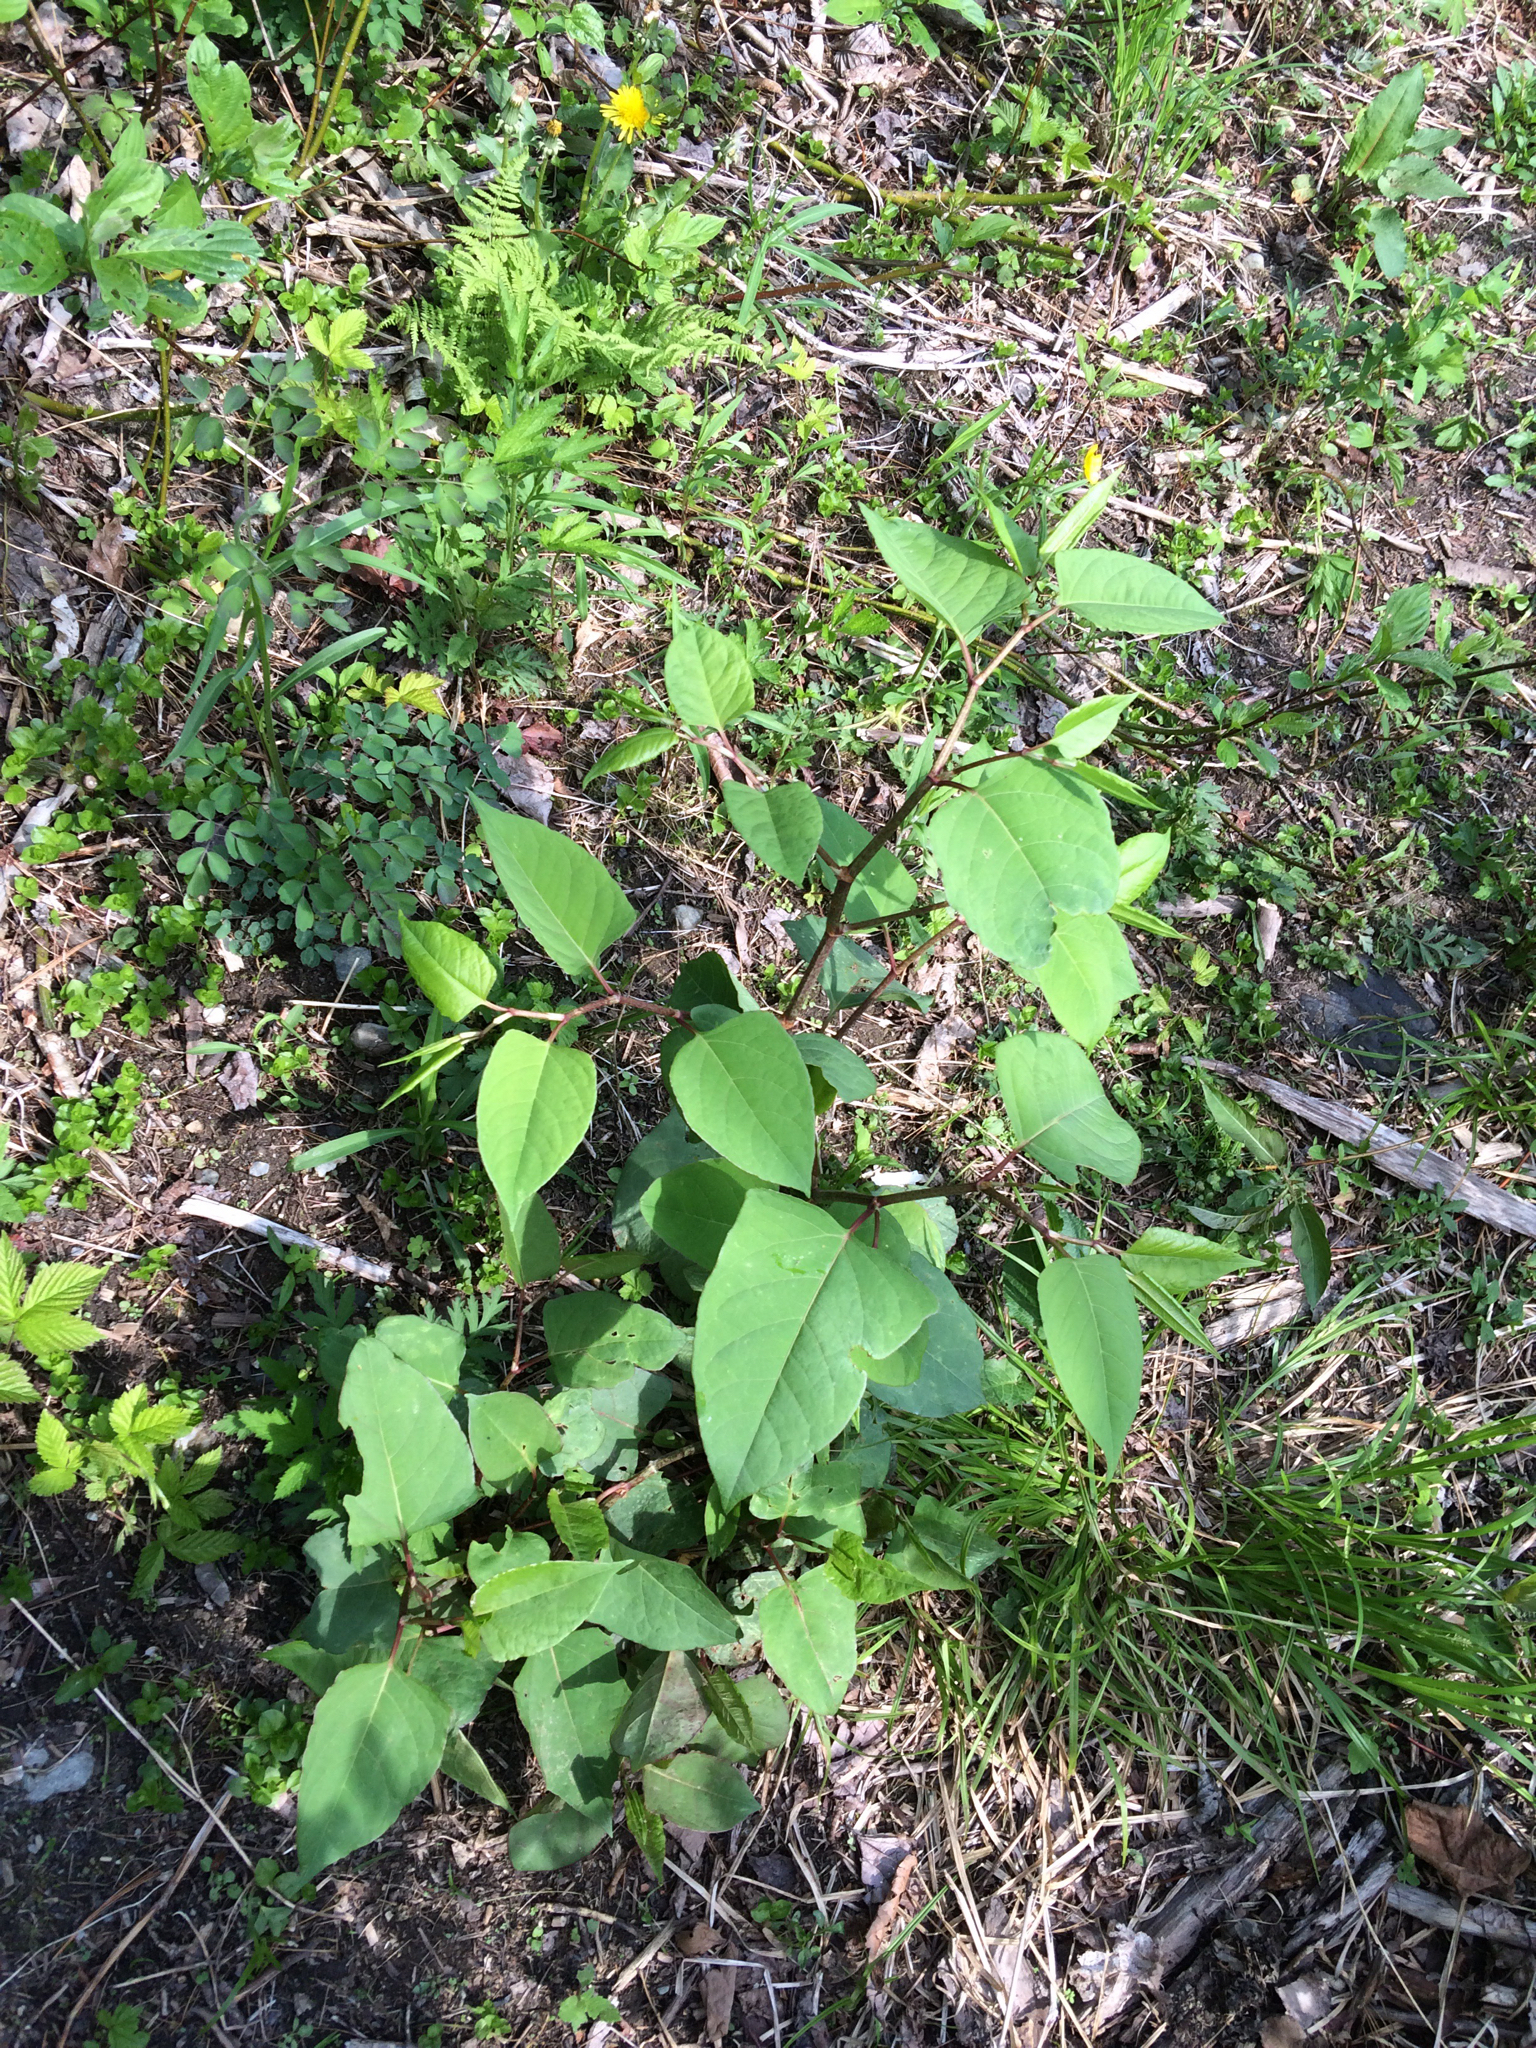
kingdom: Plantae
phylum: Tracheophyta
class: Magnoliopsida
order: Caryophyllales
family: Polygonaceae
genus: Reynoutria
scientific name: Reynoutria japonica
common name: Japanese knotweed
